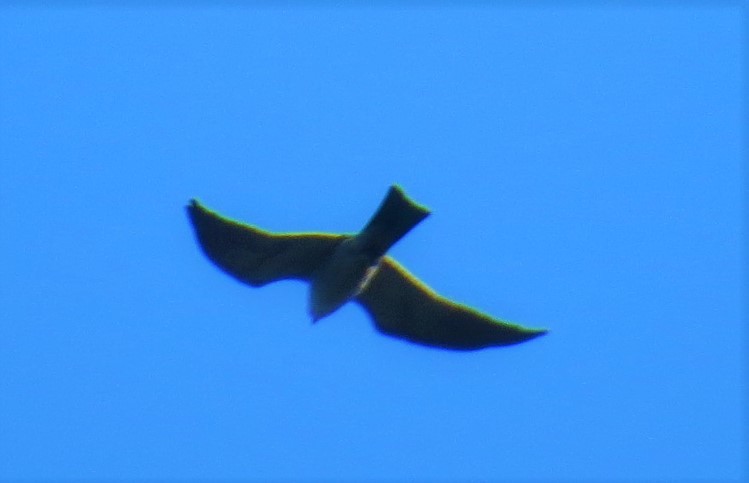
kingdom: Animalia
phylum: Chordata
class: Aves
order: Accipitriformes
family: Accipitridae
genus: Ictinia
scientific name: Ictinia mississippiensis
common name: Mississippi kite
